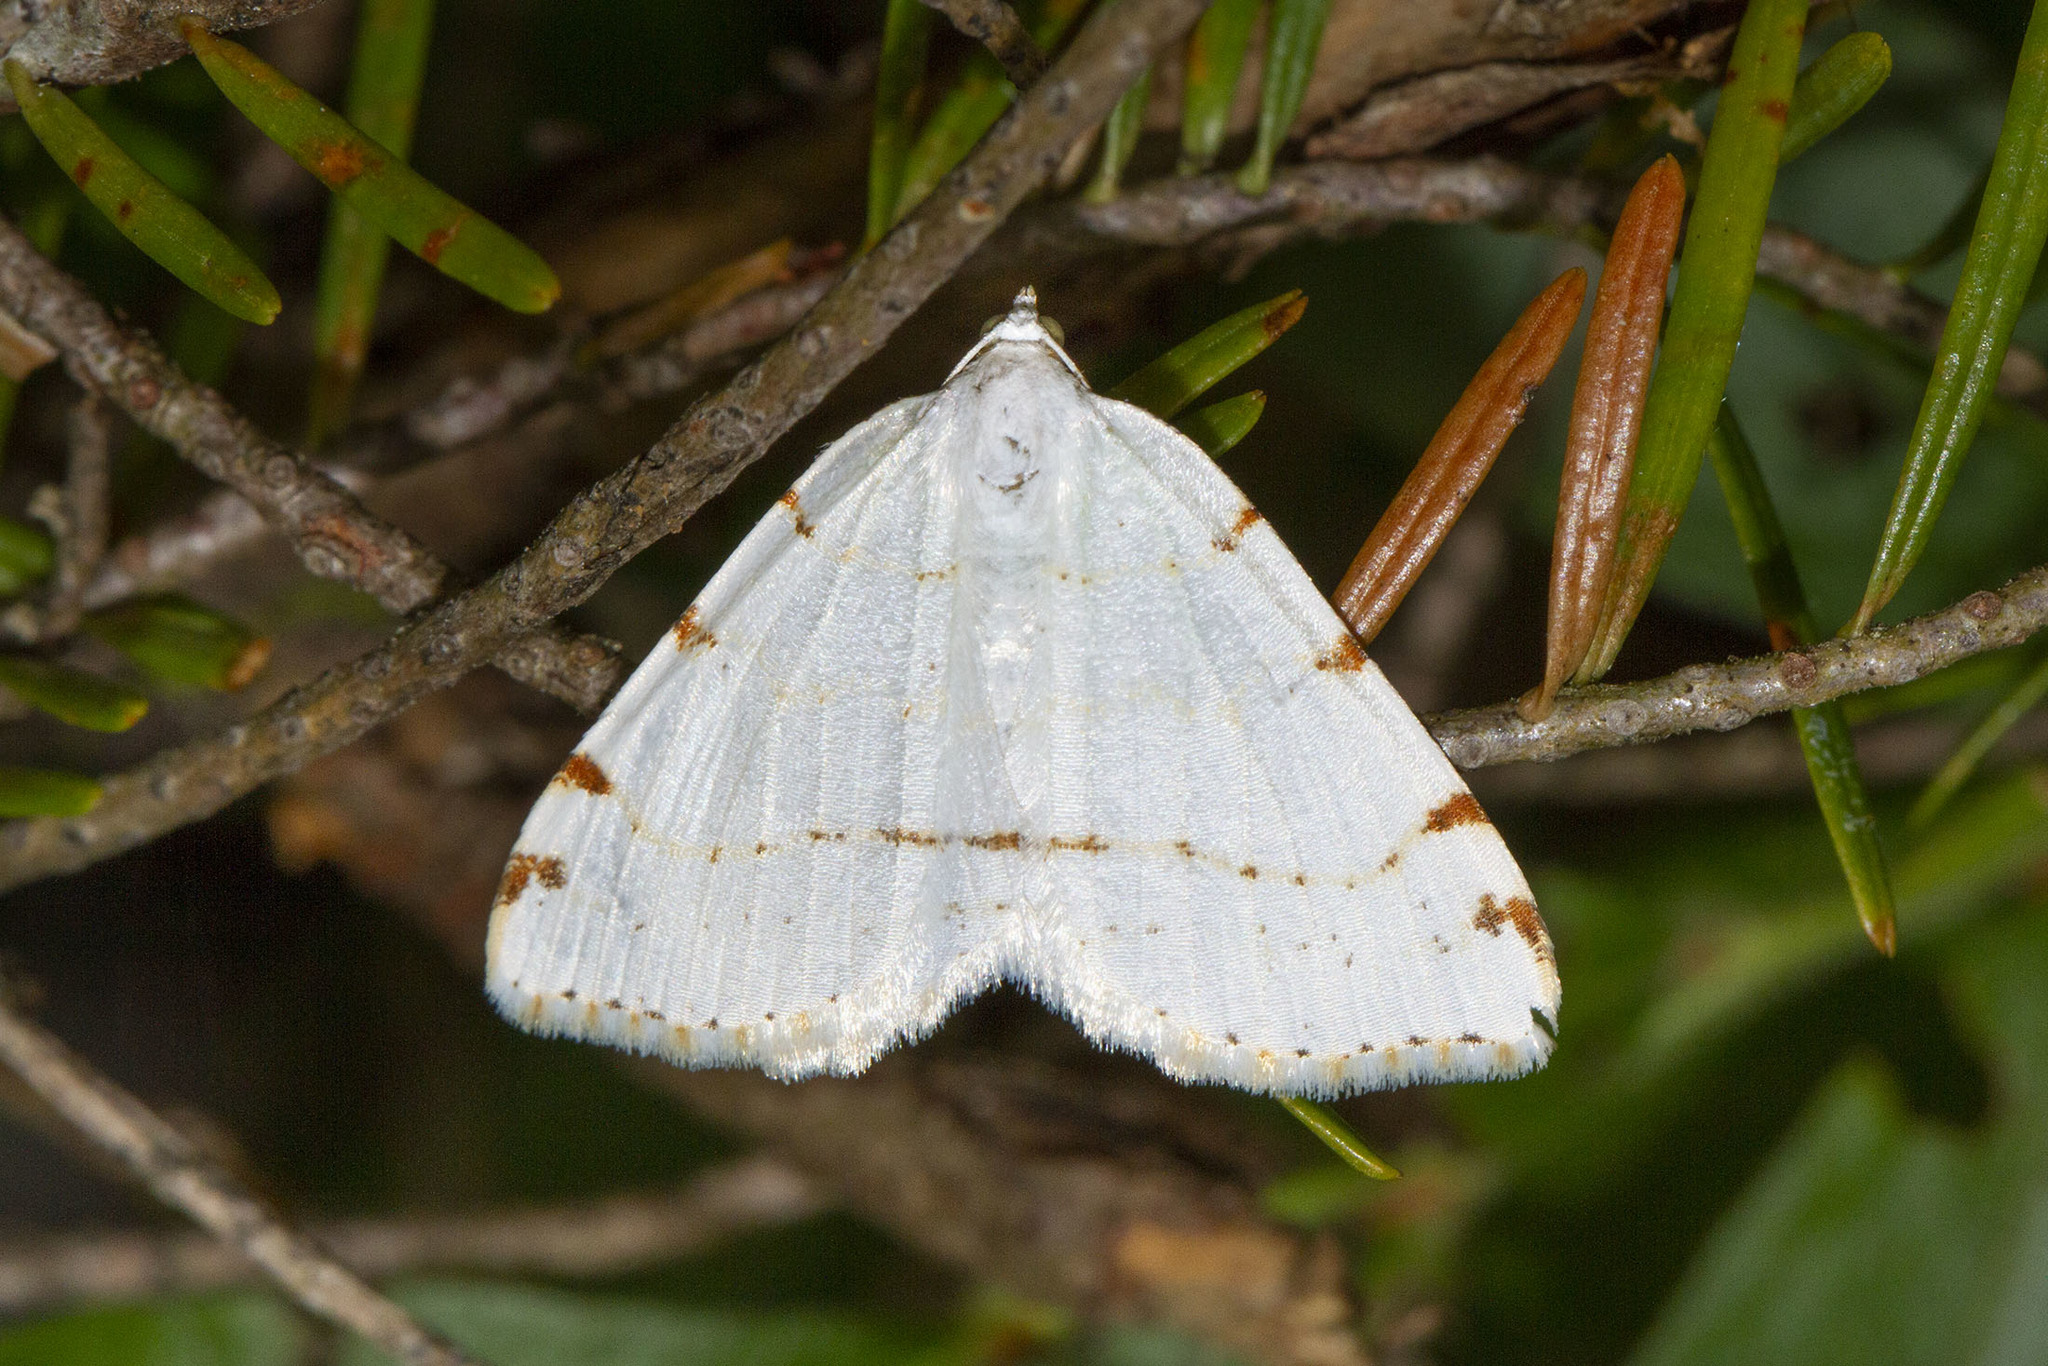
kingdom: Animalia
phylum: Arthropoda
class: Insecta
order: Lepidoptera
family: Geometridae
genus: Macaria
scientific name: Macaria pustularia
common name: Lesser maple spanworm moth
